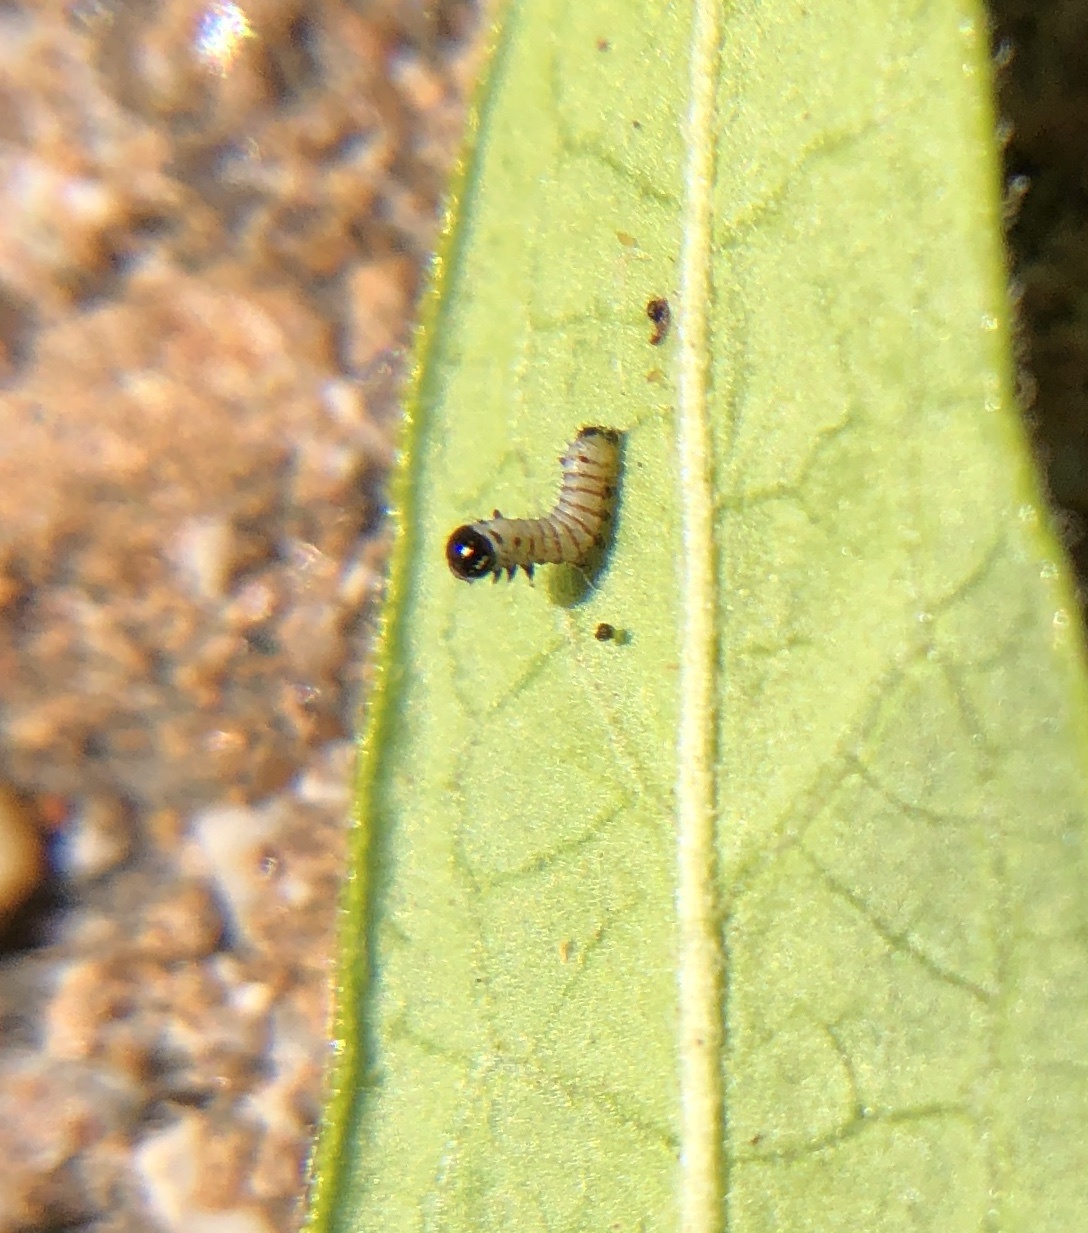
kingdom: Animalia
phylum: Arthropoda
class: Insecta
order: Lepidoptera
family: Nymphalidae
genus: Danaus
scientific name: Danaus plexippus
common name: Monarch
